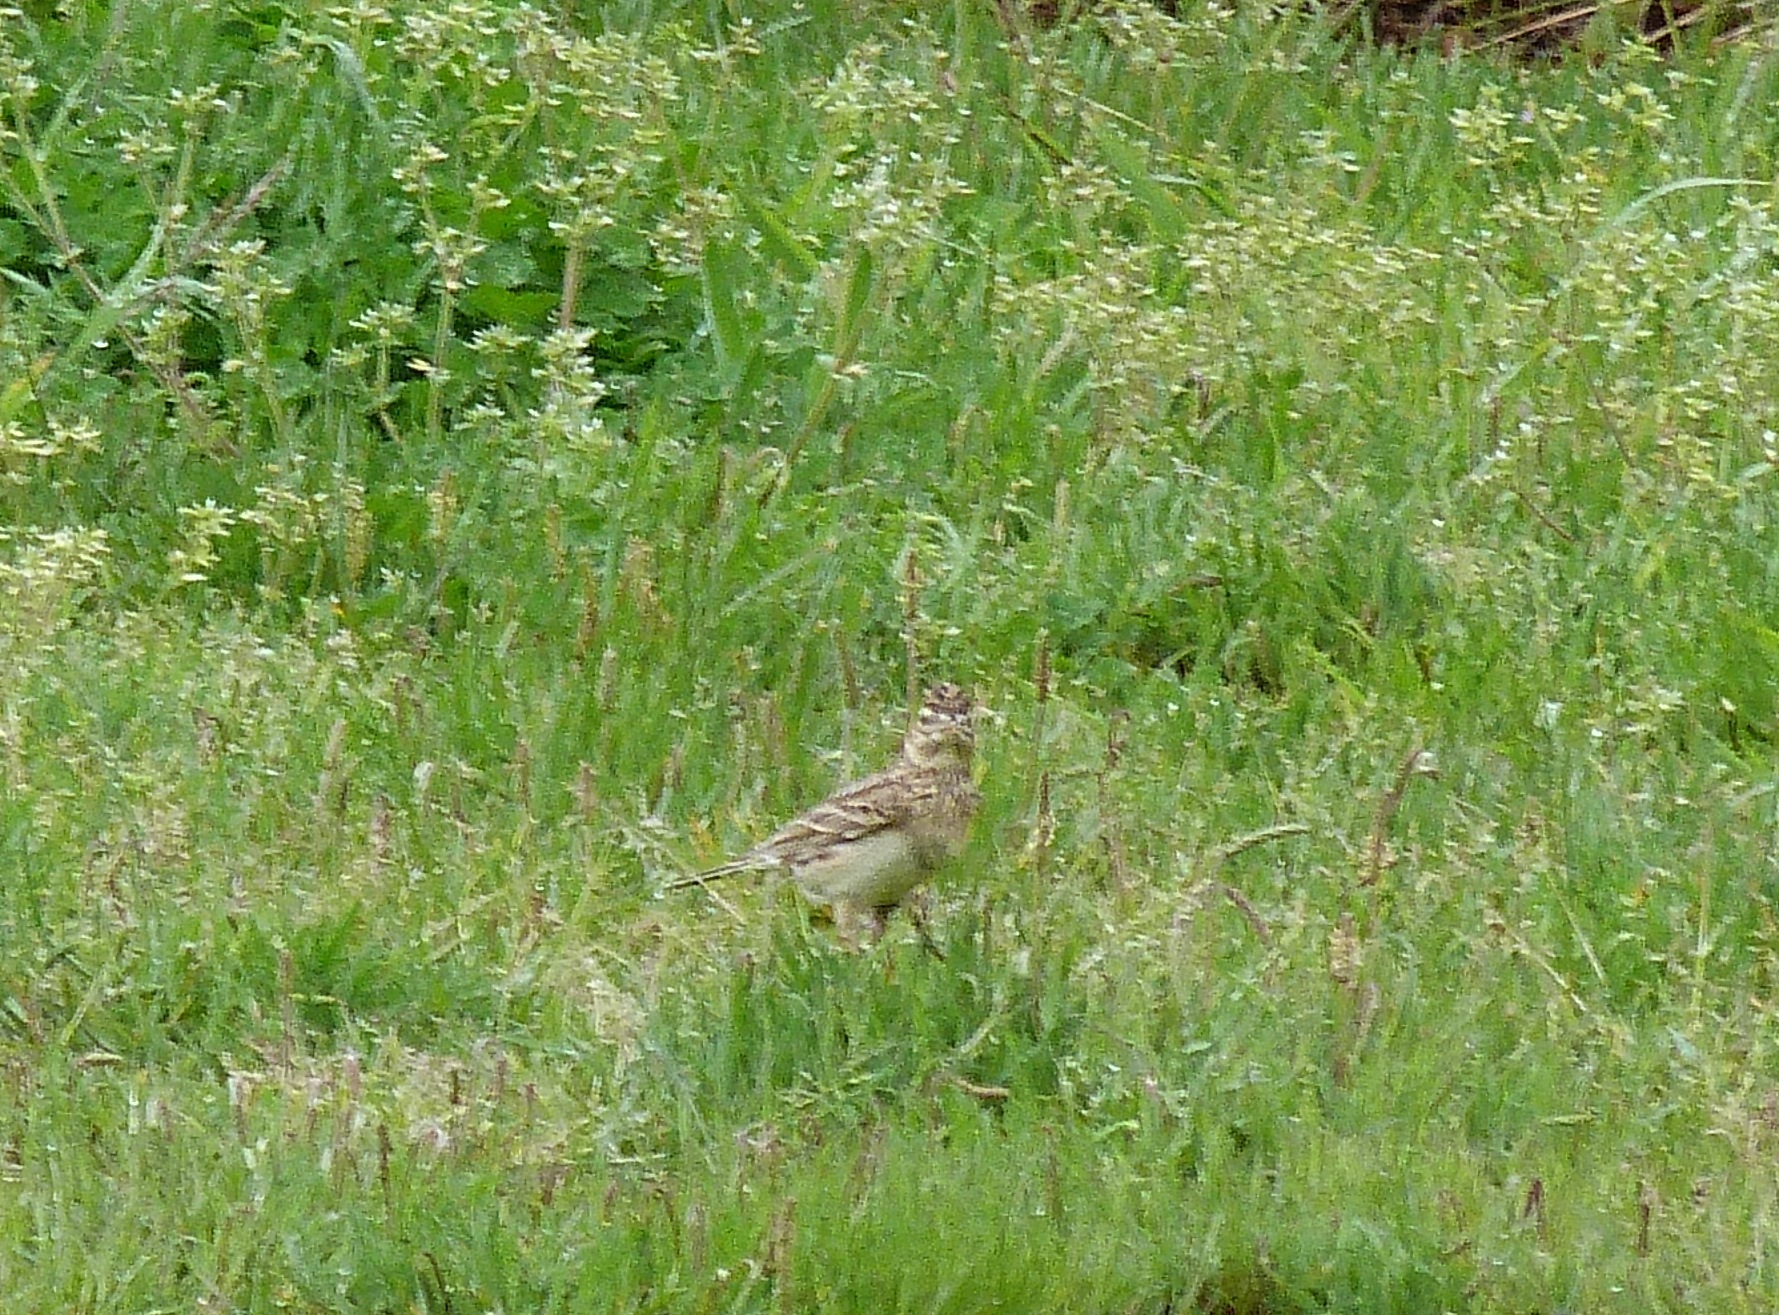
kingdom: Animalia
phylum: Chordata
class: Aves
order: Passeriformes
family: Alaudidae
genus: Alauda
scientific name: Alauda arvensis
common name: Eurasian skylark
